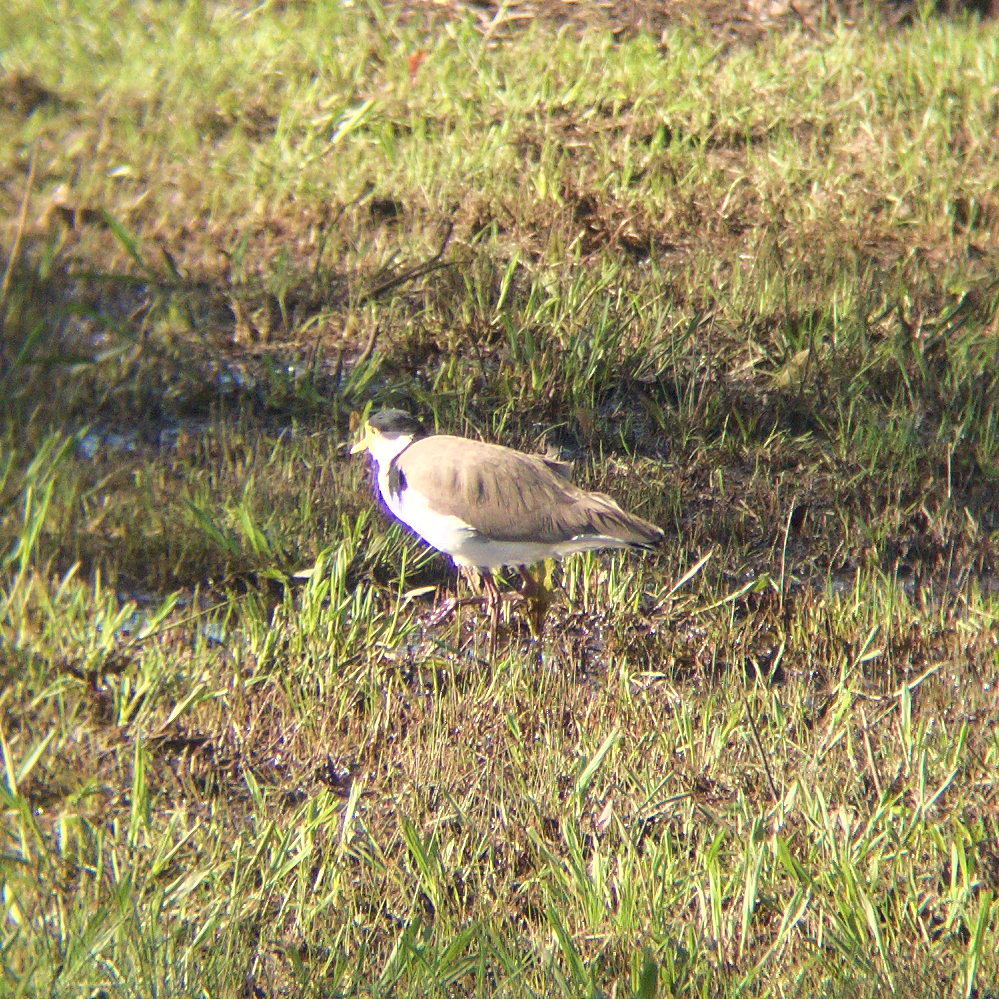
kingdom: Animalia
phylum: Chordata
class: Aves
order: Charadriiformes
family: Charadriidae
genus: Vanellus
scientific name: Vanellus miles
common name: Masked lapwing
